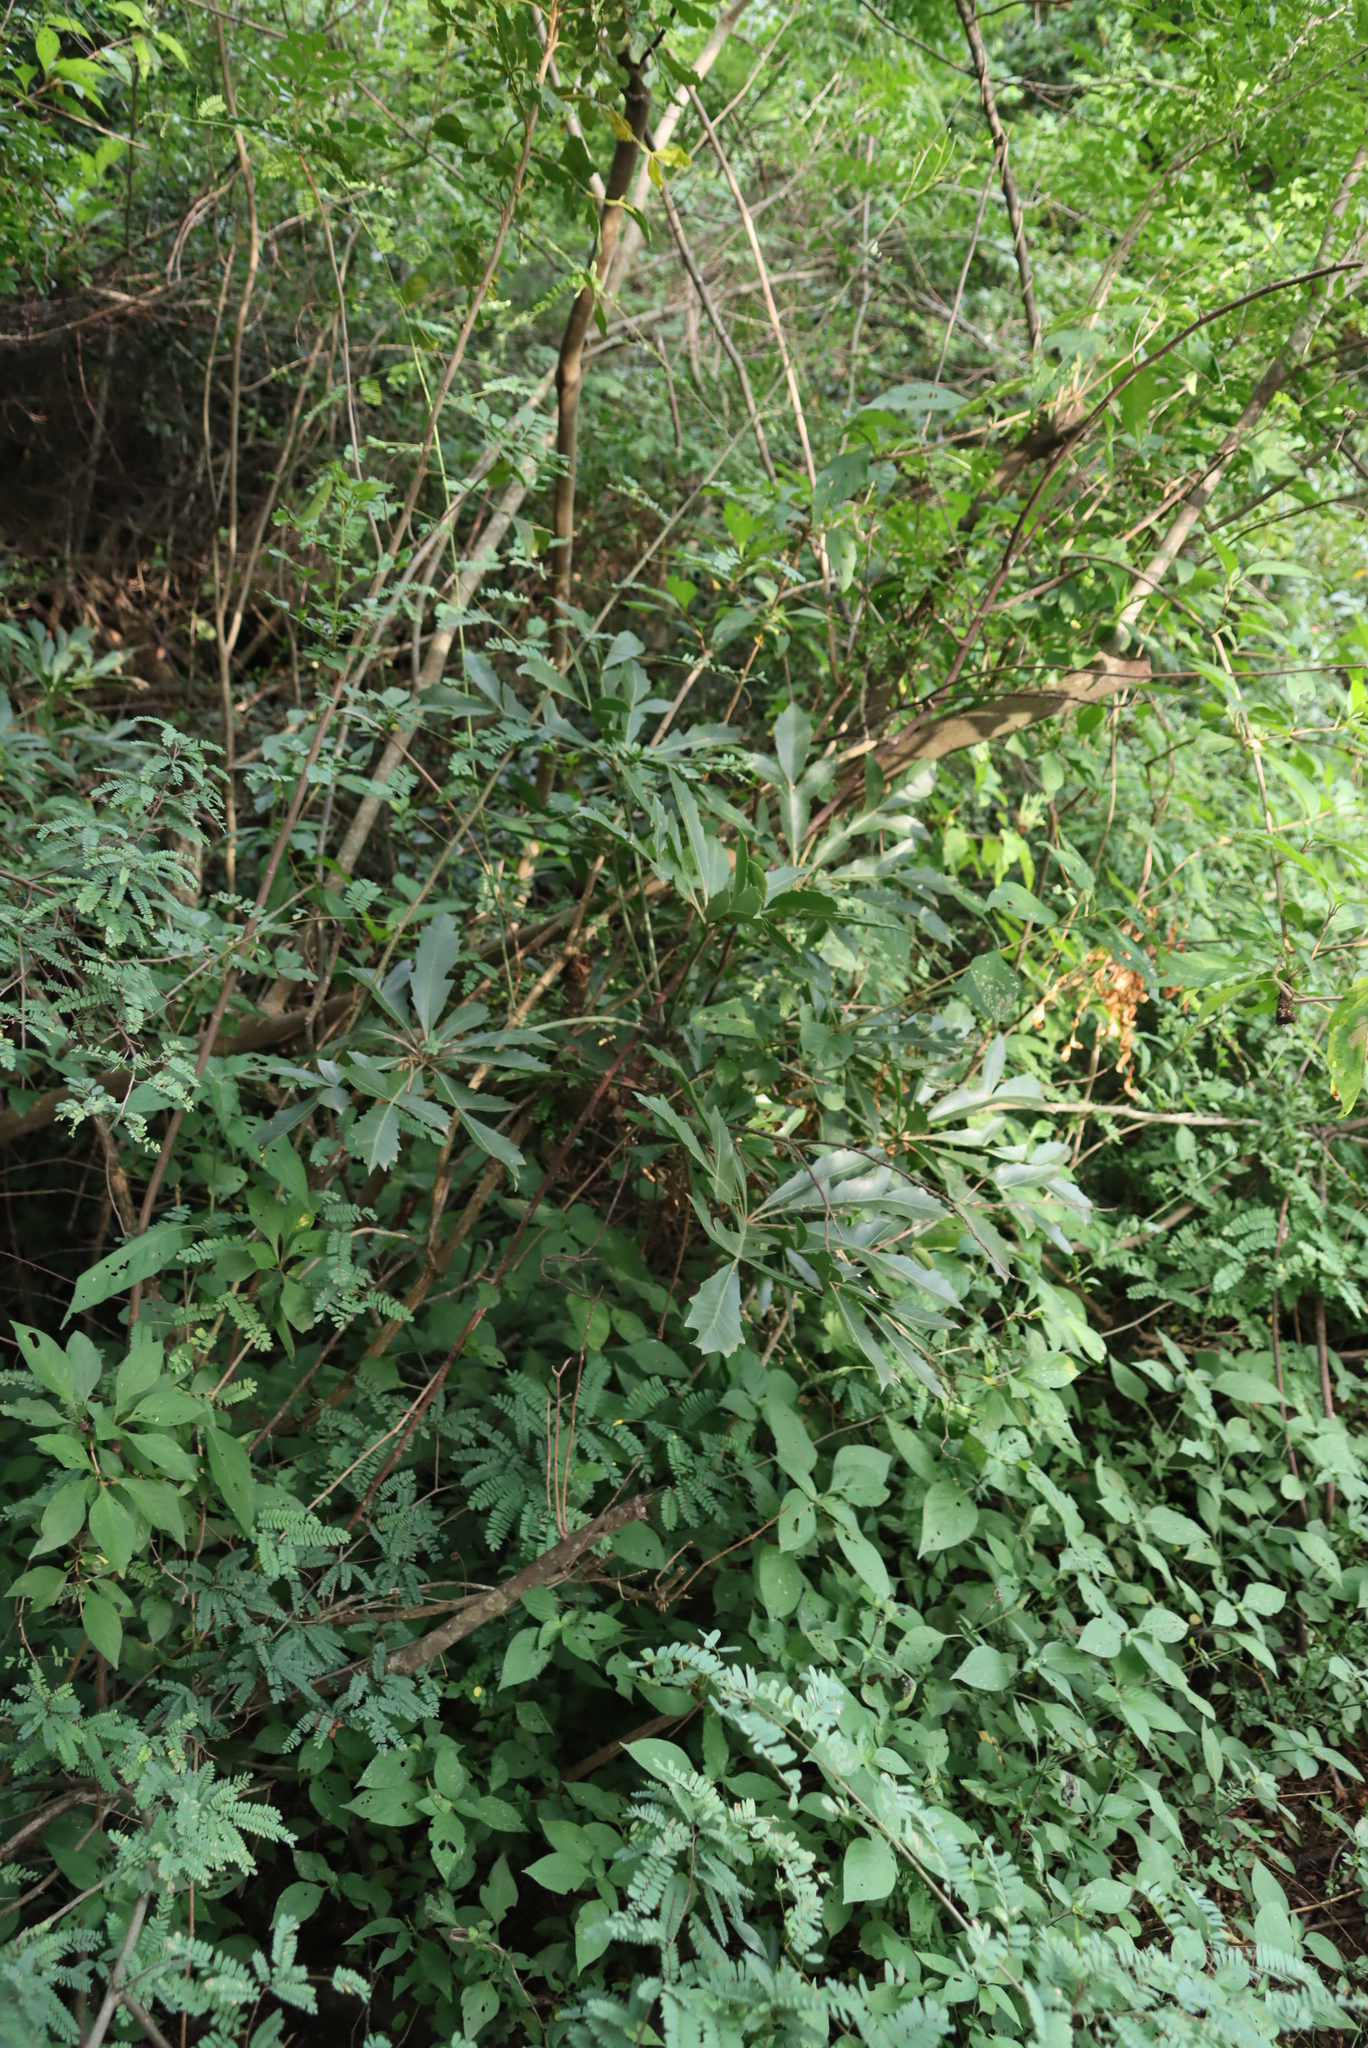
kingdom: Plantae
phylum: Tracheophyta
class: Magnoliopsida
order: Apiales
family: Araliaceae
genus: Cussonia
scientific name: Cussonia spicata
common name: Common cabbagetree
